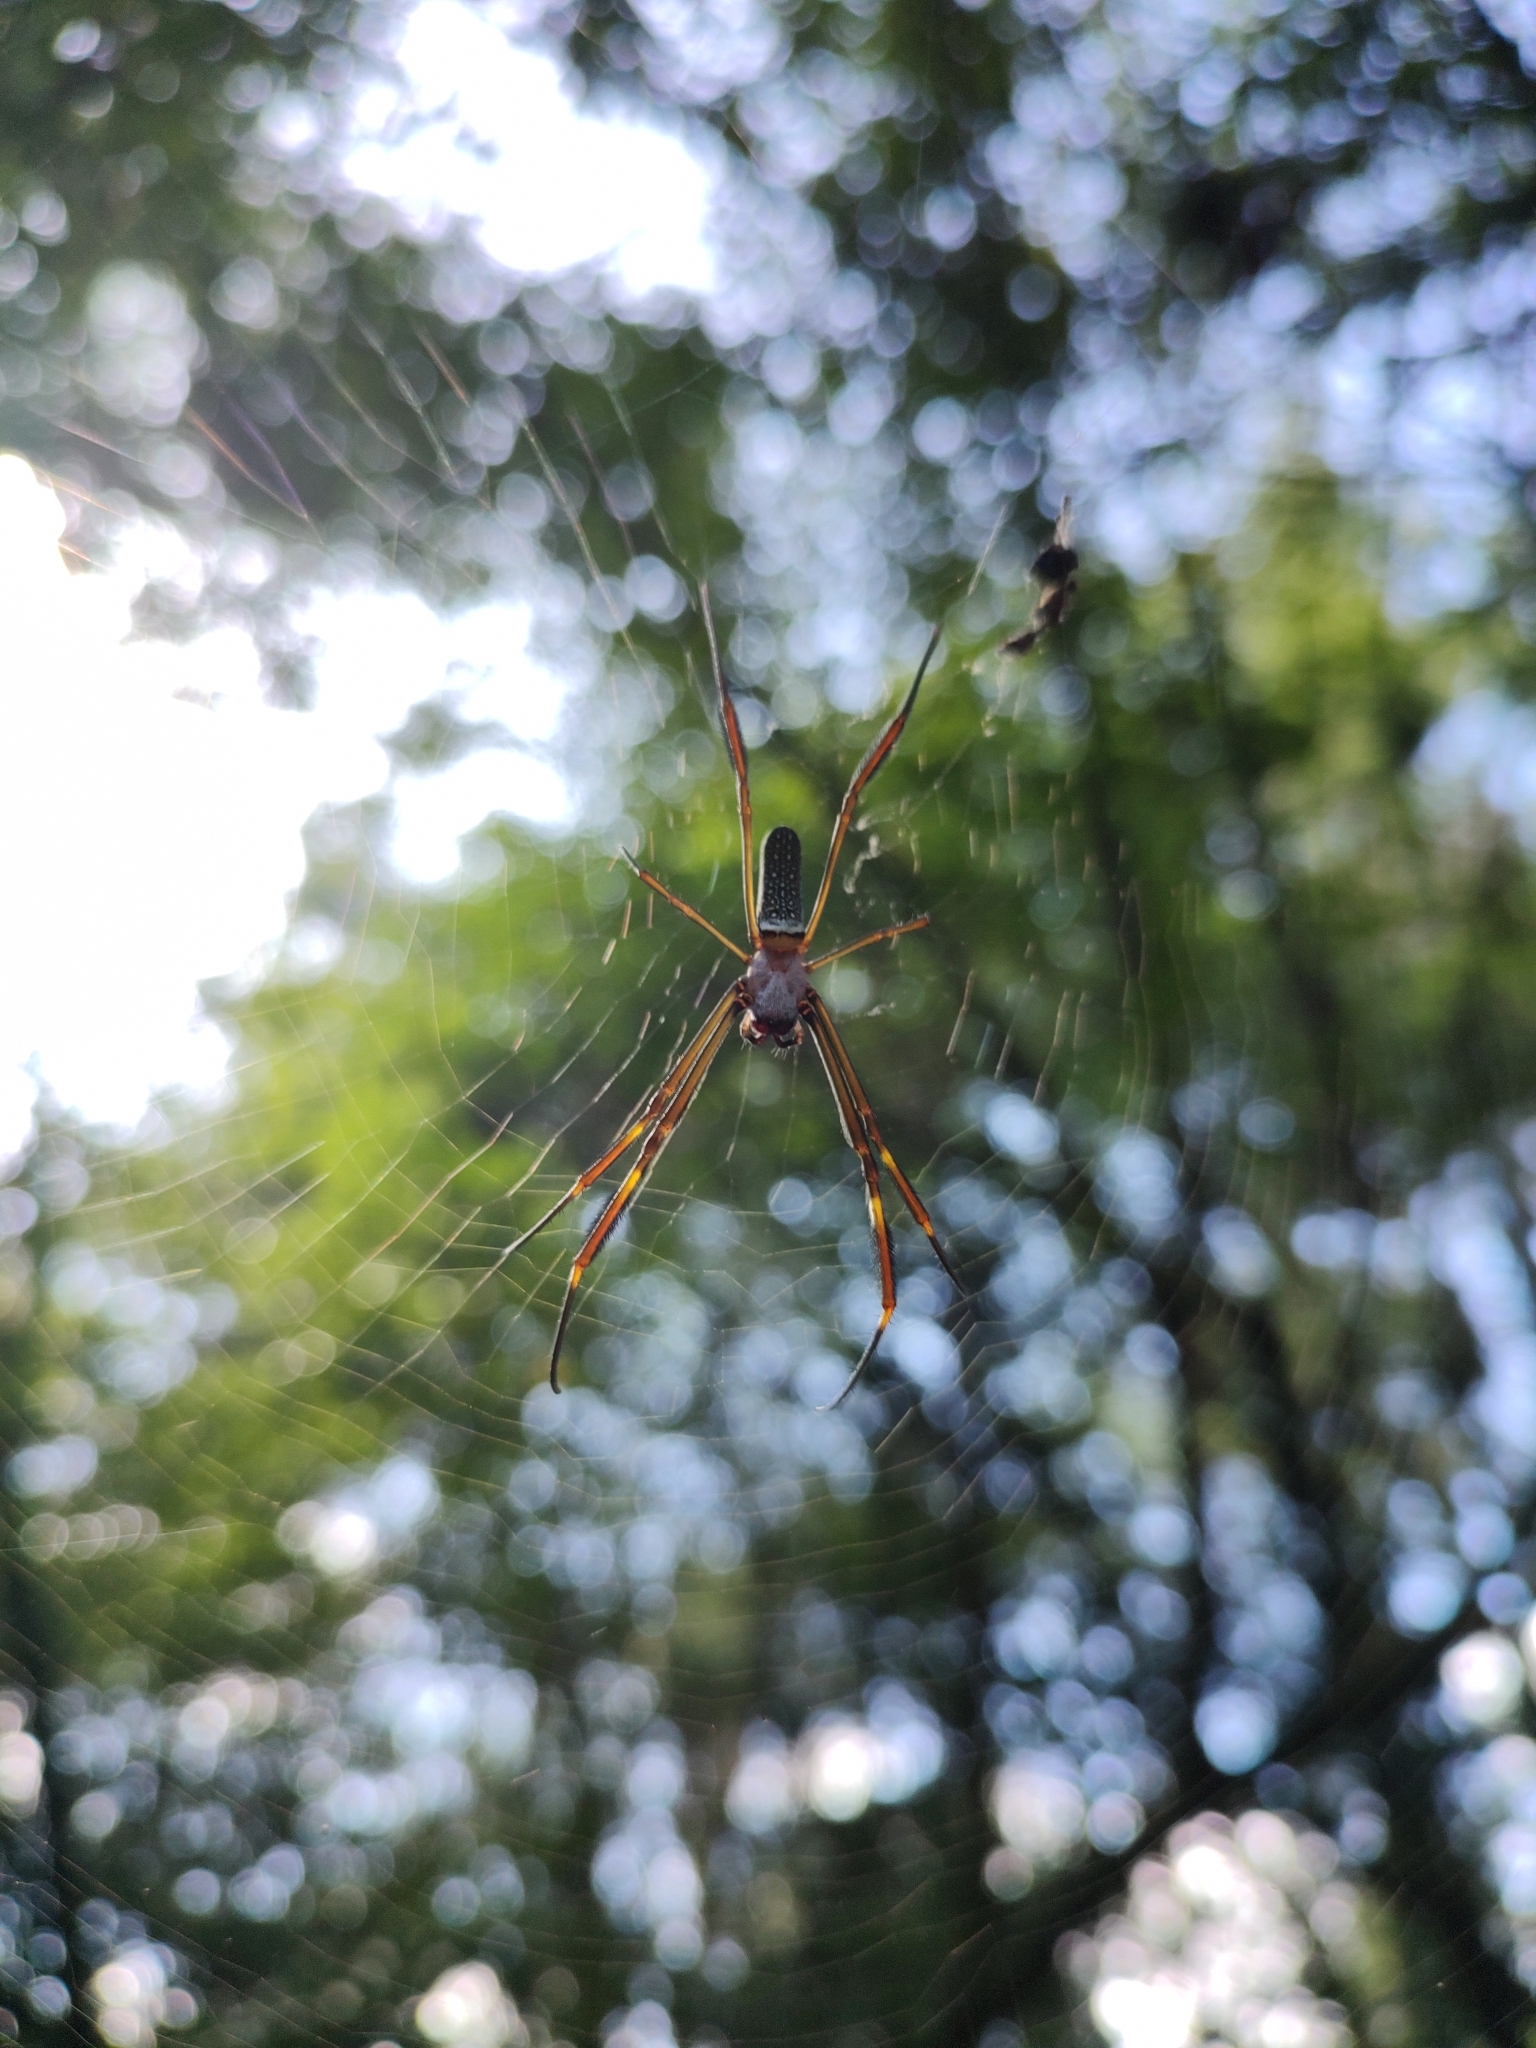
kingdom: Animalia
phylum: Arthropoda
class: Arachnida
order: Araneae
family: Araneidae
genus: Trichonephila
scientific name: Trichonephila clavipes
